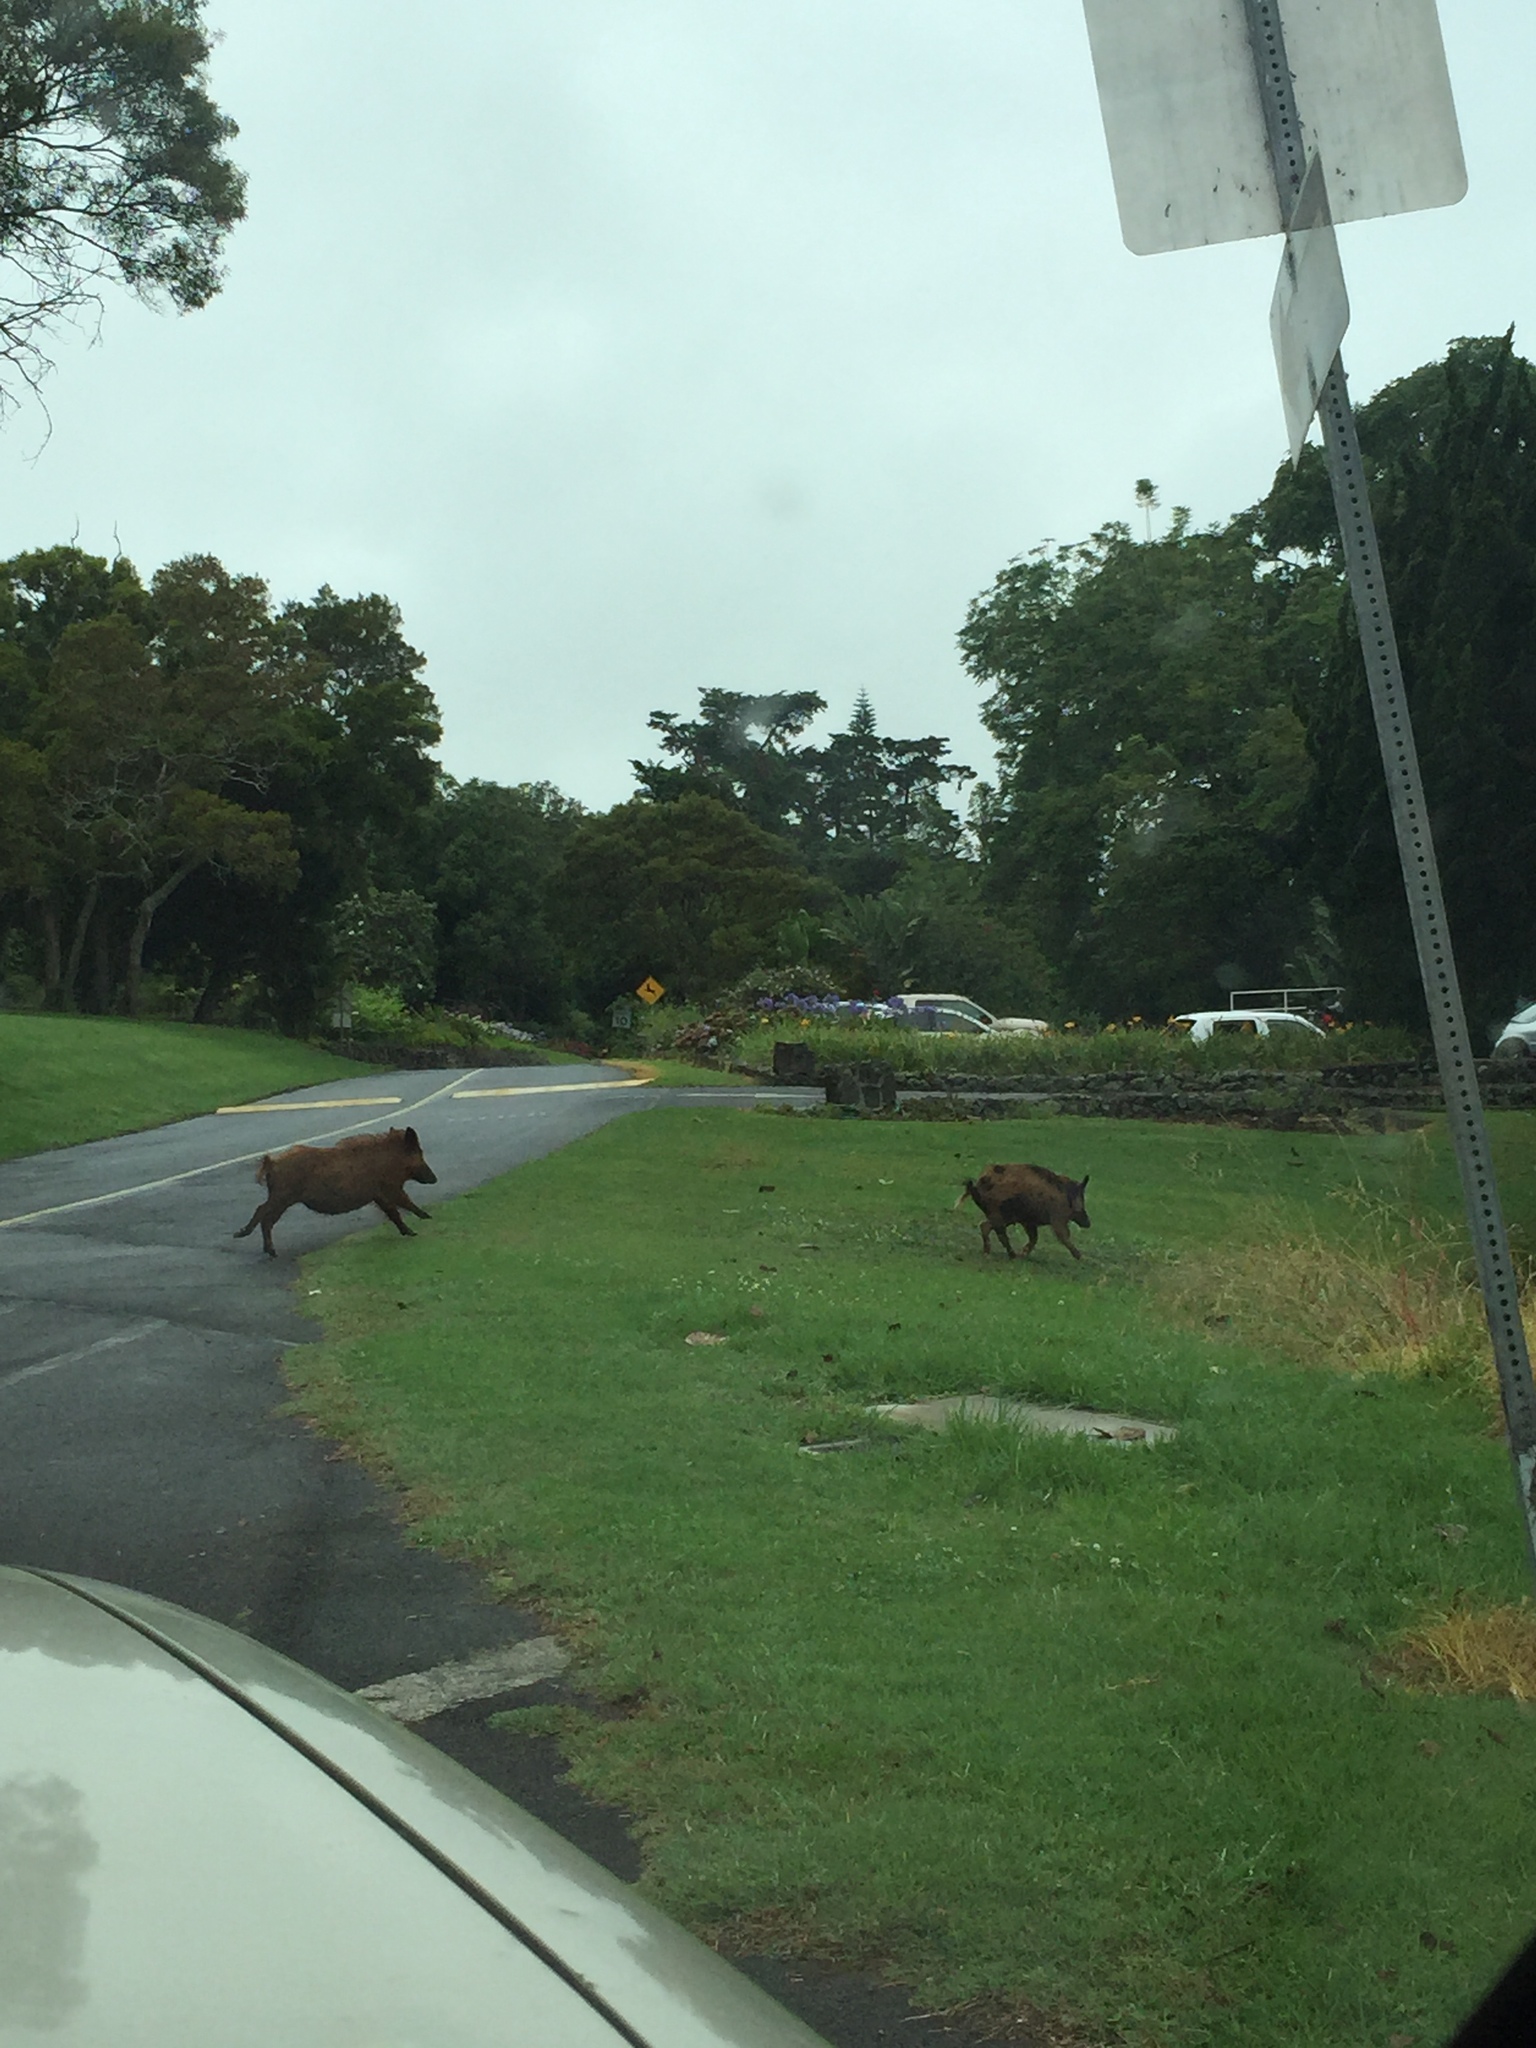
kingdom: Animalia
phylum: Chordata
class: Mammalia
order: Artiodactyla
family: Suidae
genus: Sus
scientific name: Sus scrofa
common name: Wild boar
